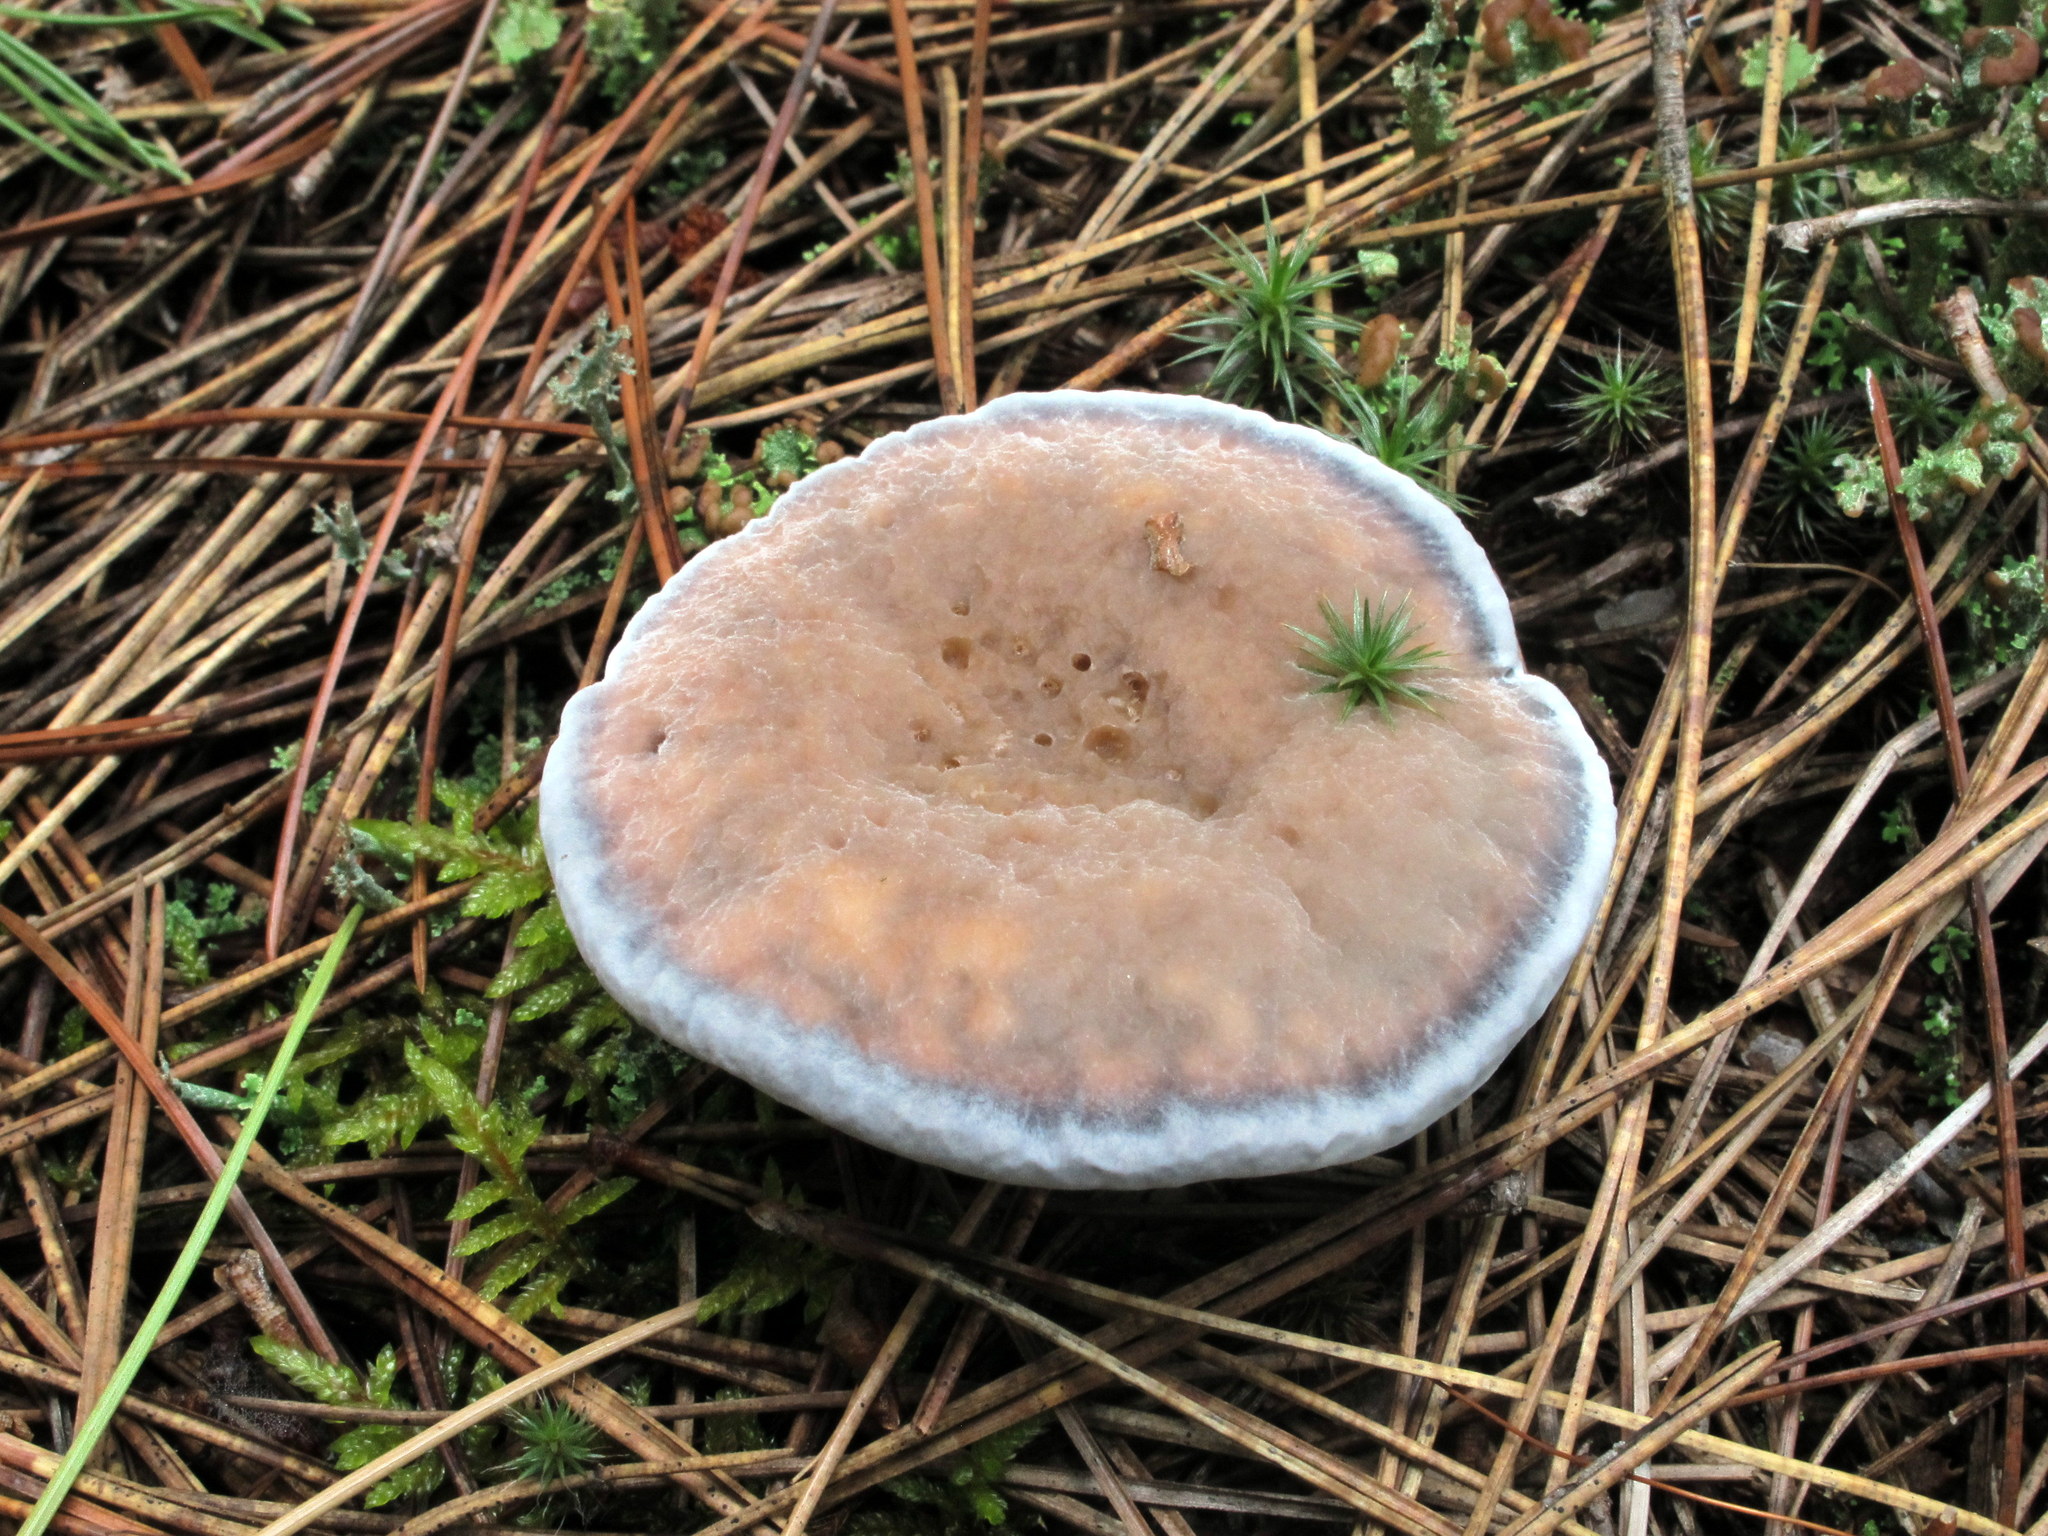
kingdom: Fungi
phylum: Basidiomycota
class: Agaricomycetes
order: Thelephorales
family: Bankeraceae
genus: Hydnellum
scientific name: Hydnellum caeruleum
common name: Blue corky spine fungus
